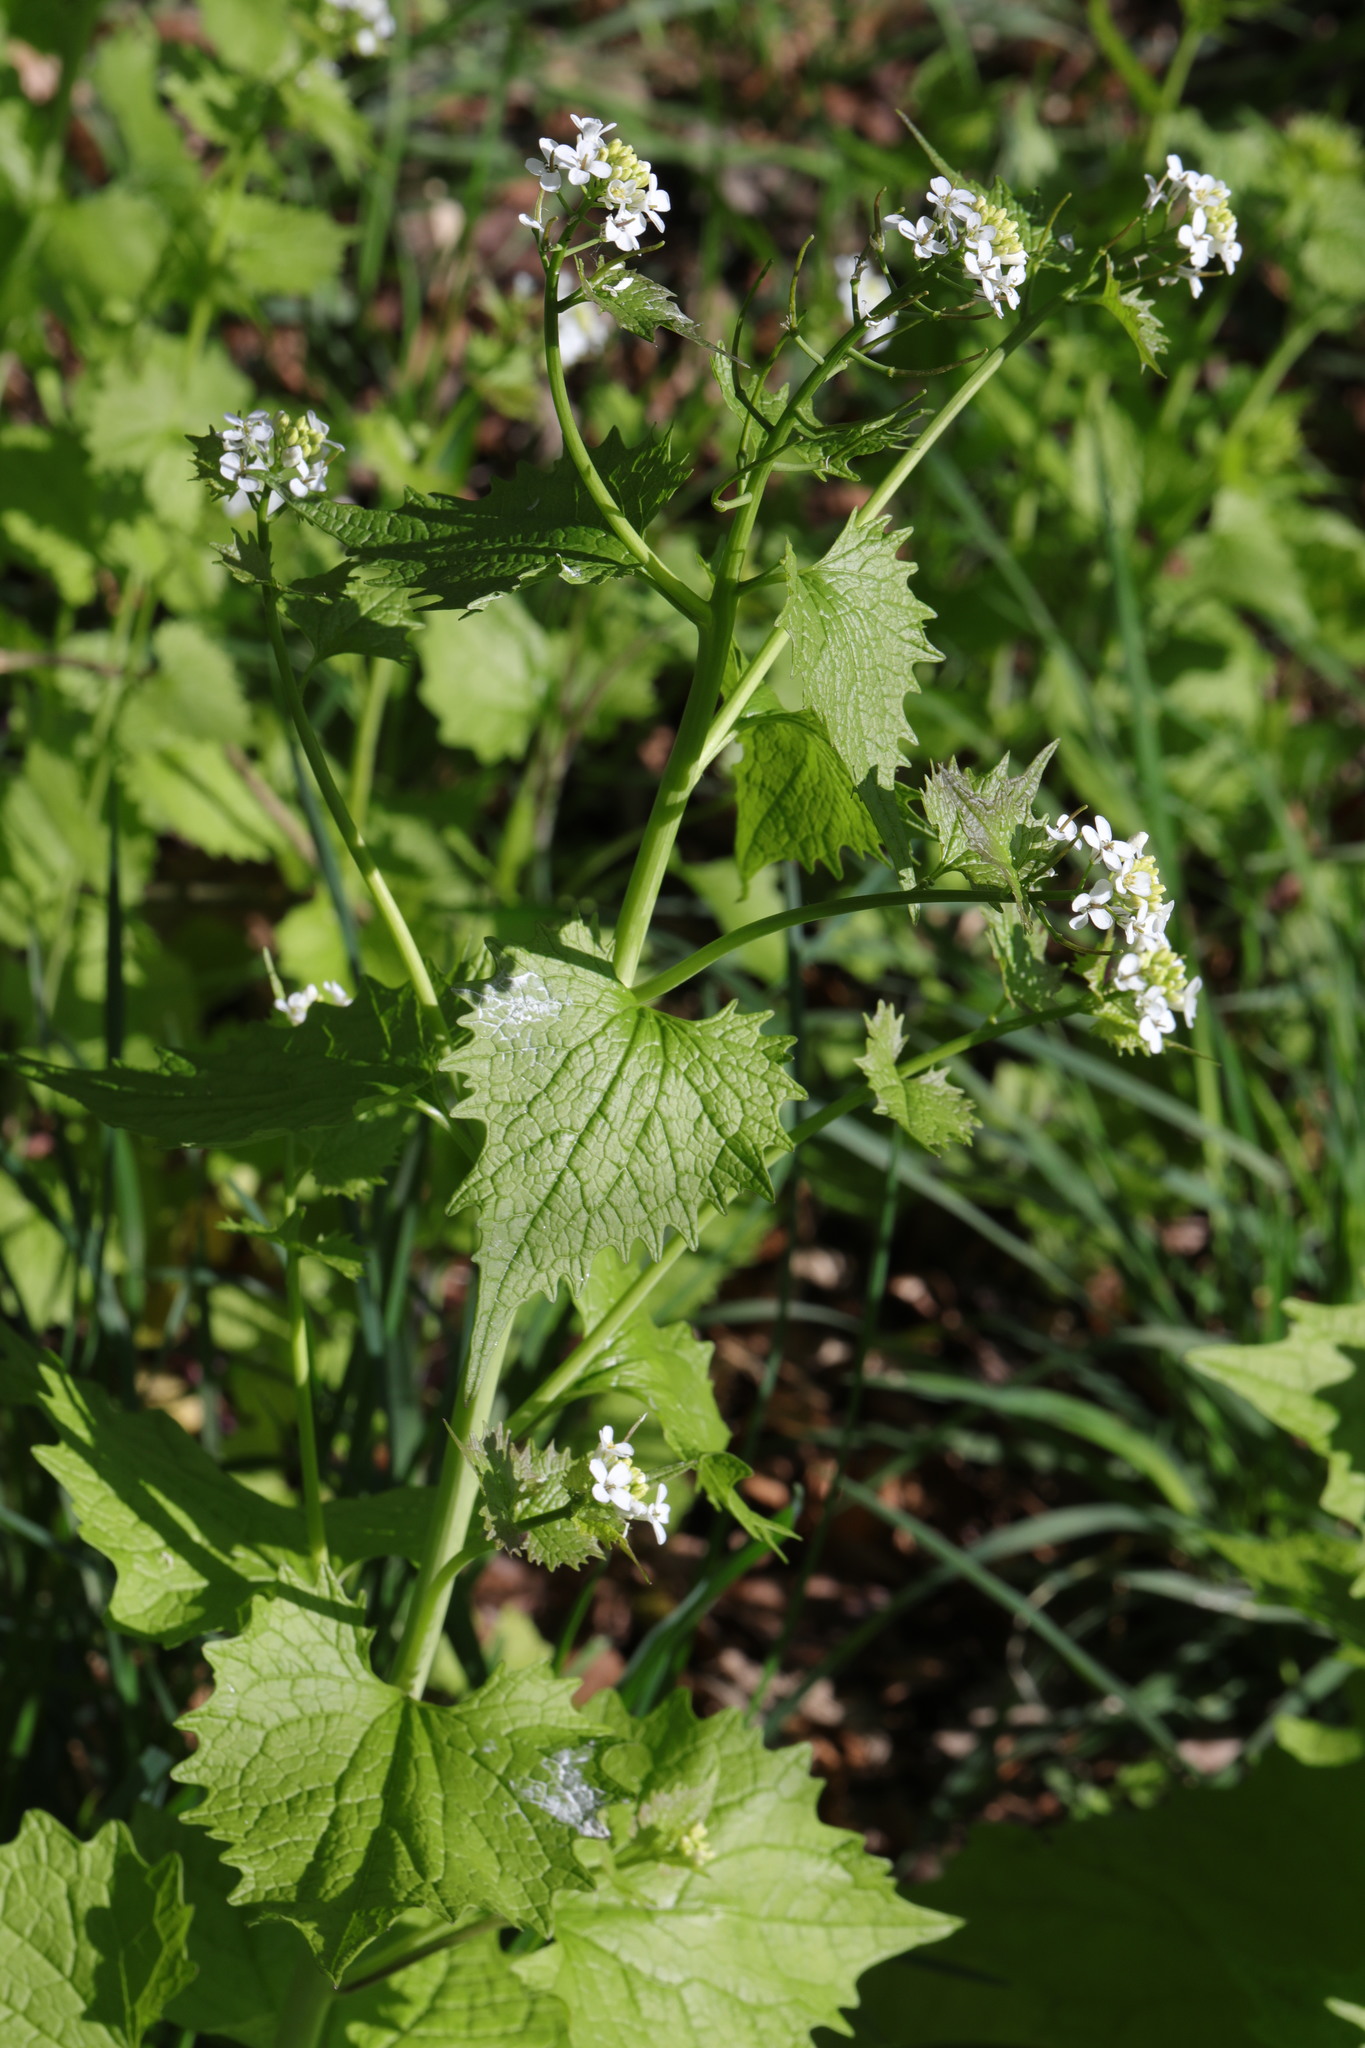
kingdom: Plantae
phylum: Tracheophyta
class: Magnoliopsida
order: Brassicales
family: Brassicaceae
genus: Alliaria
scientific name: Alliaria petiolata
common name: Garlic mustard
